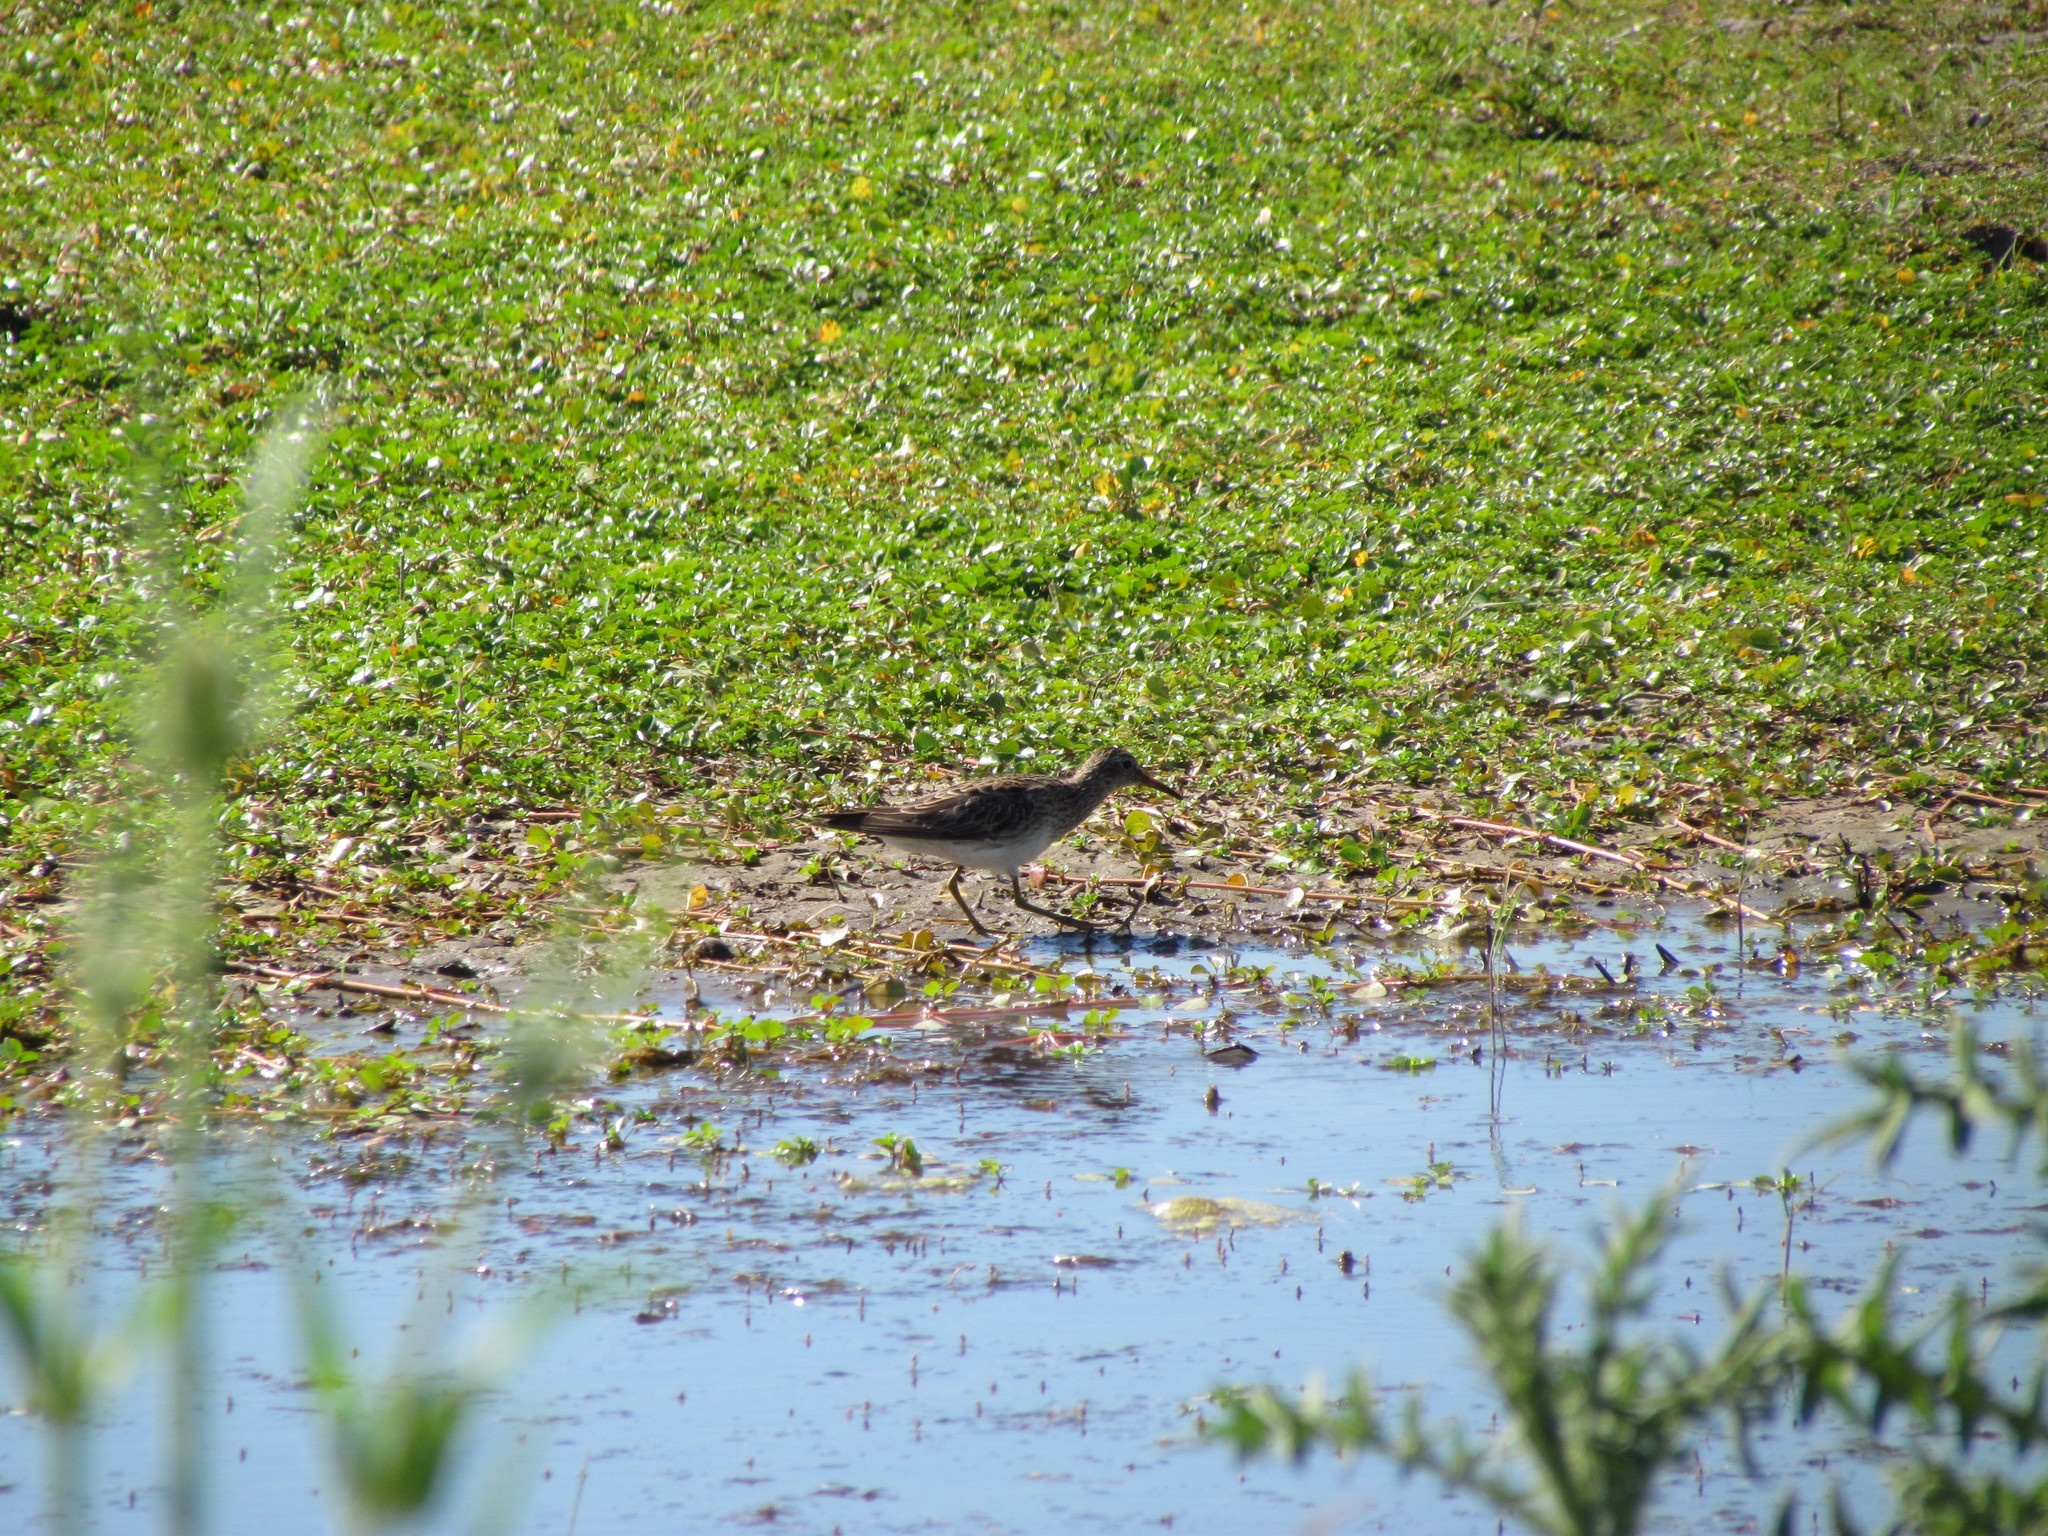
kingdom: Animalia
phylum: Chordata
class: Aves
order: Charadriiformes
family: Scolopacidae
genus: Calidris
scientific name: Calidris melanotos
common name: Pectoral sandpiper
